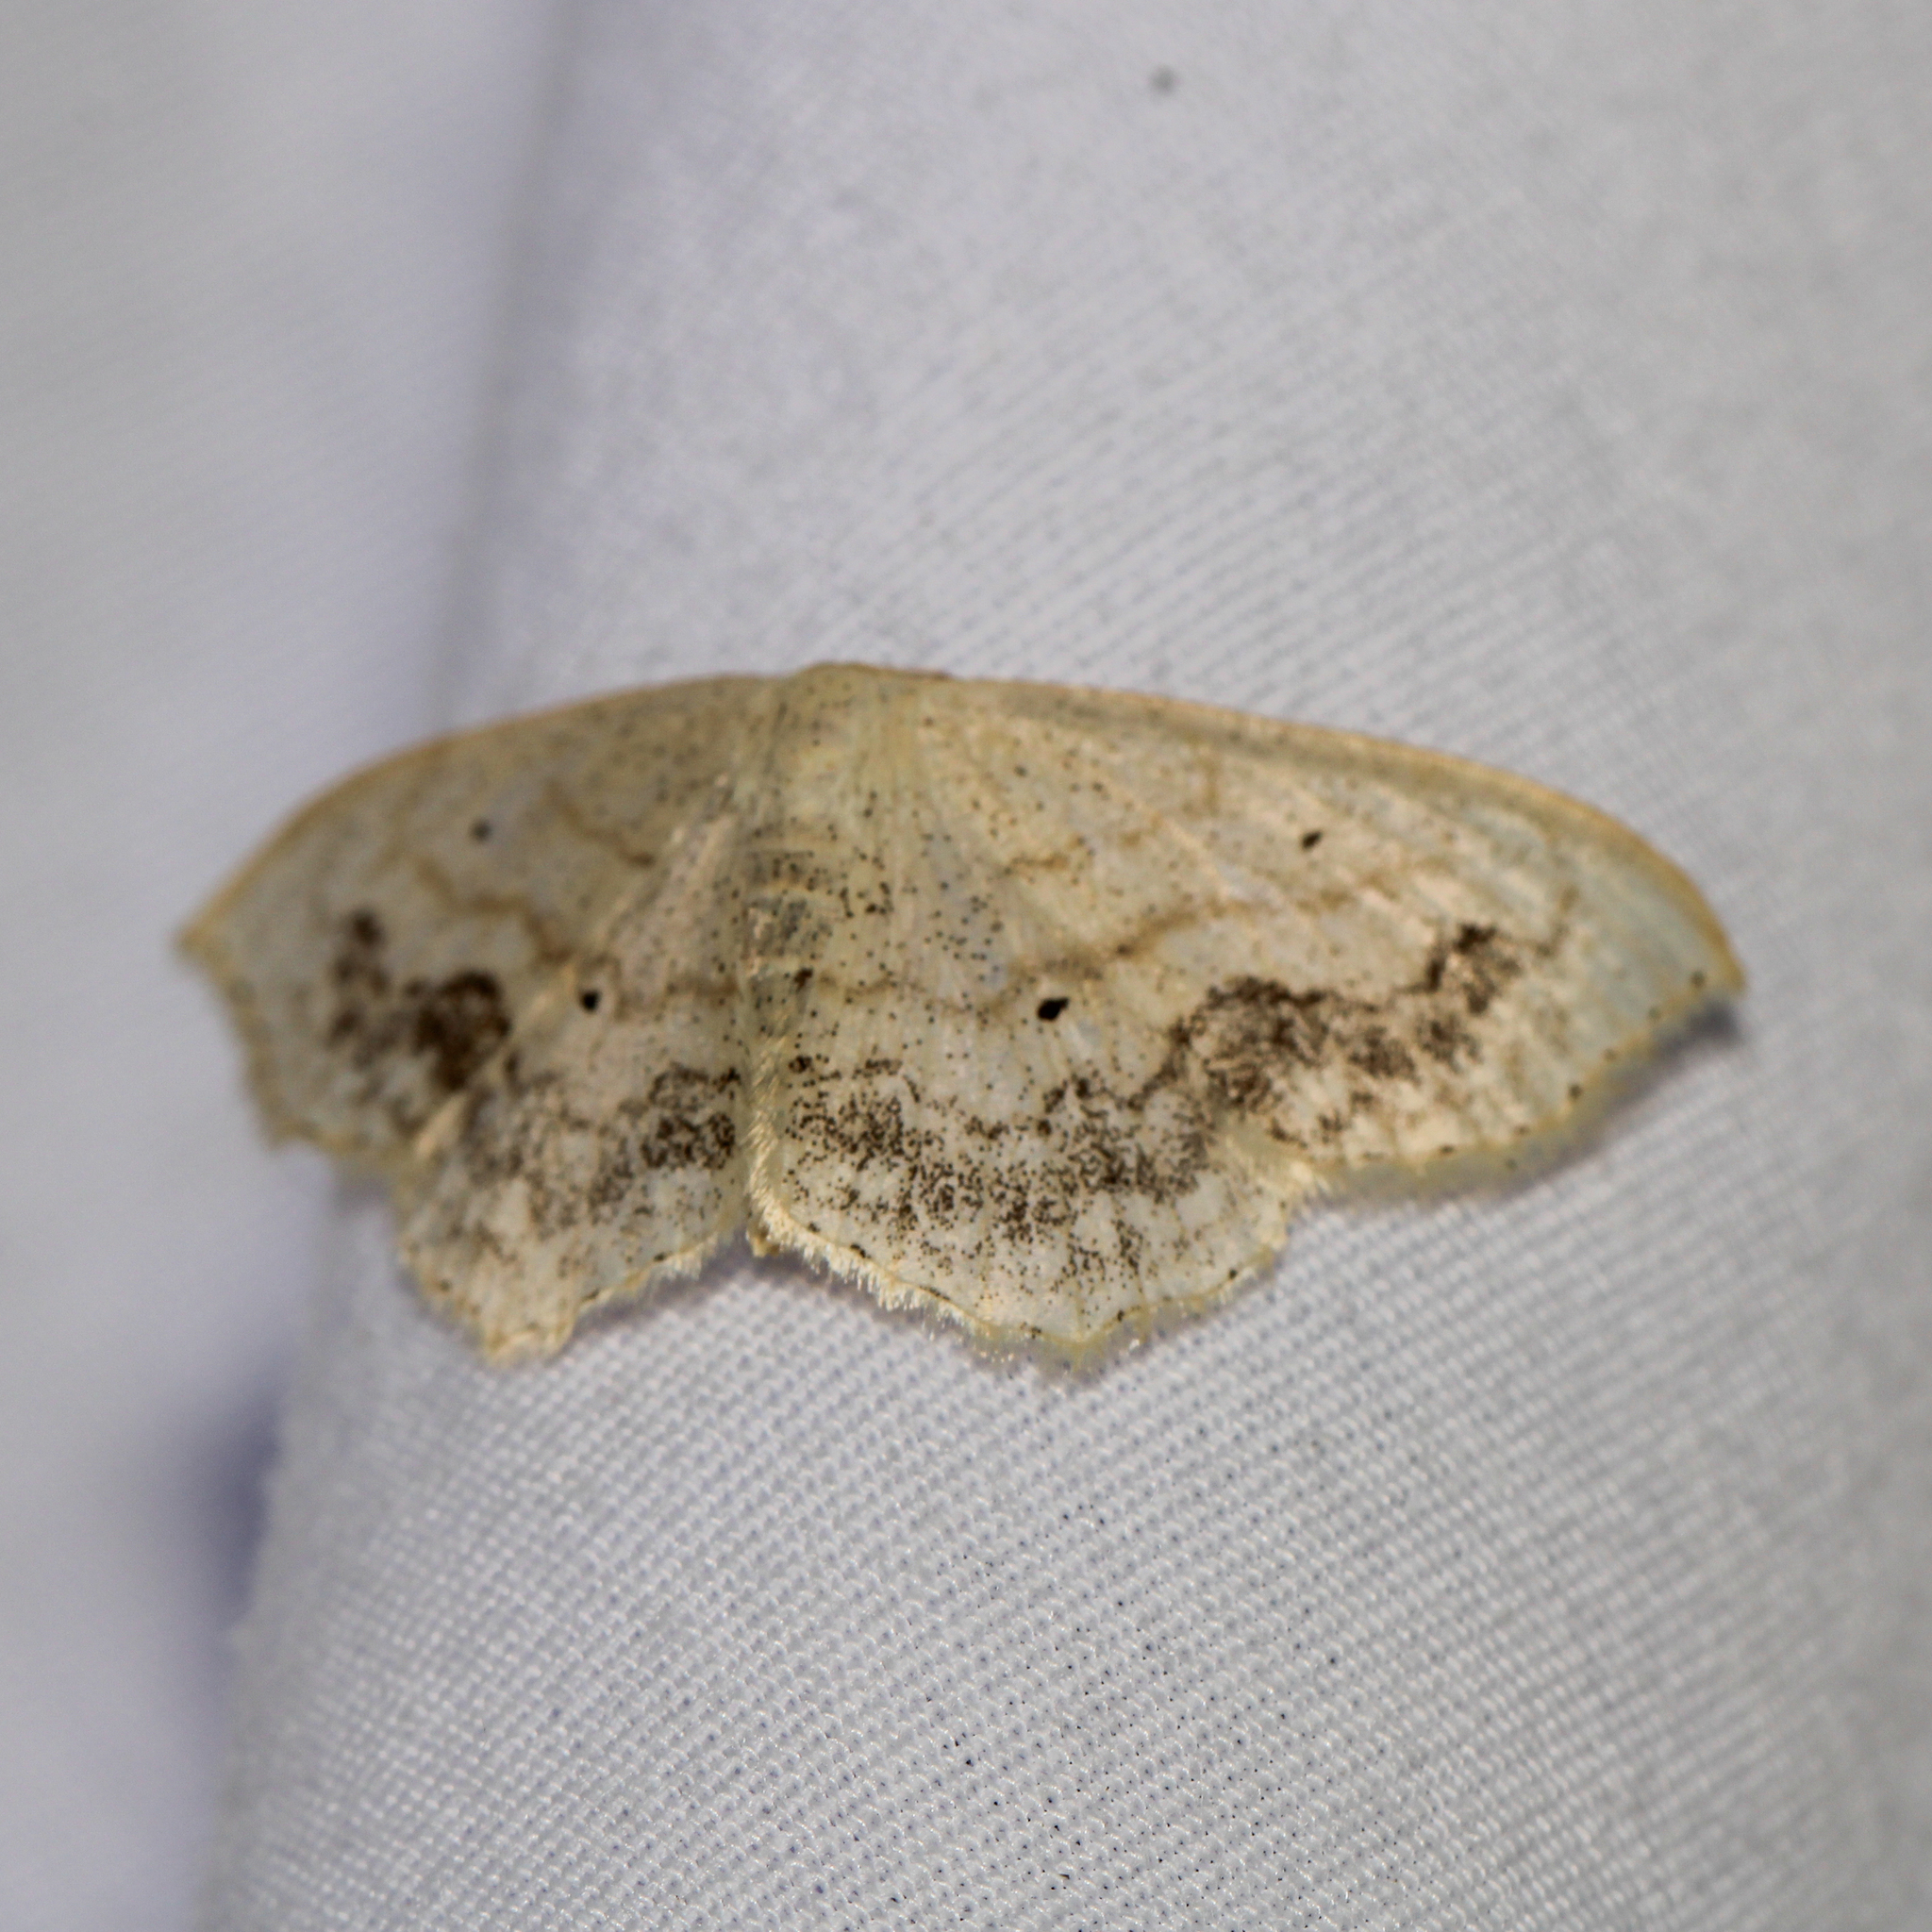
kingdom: Animalia
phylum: Arthropoda
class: Insecta
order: Lepidoptera
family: Geometridae
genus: Scopula
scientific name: Scopula limboundata
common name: Large lace border
